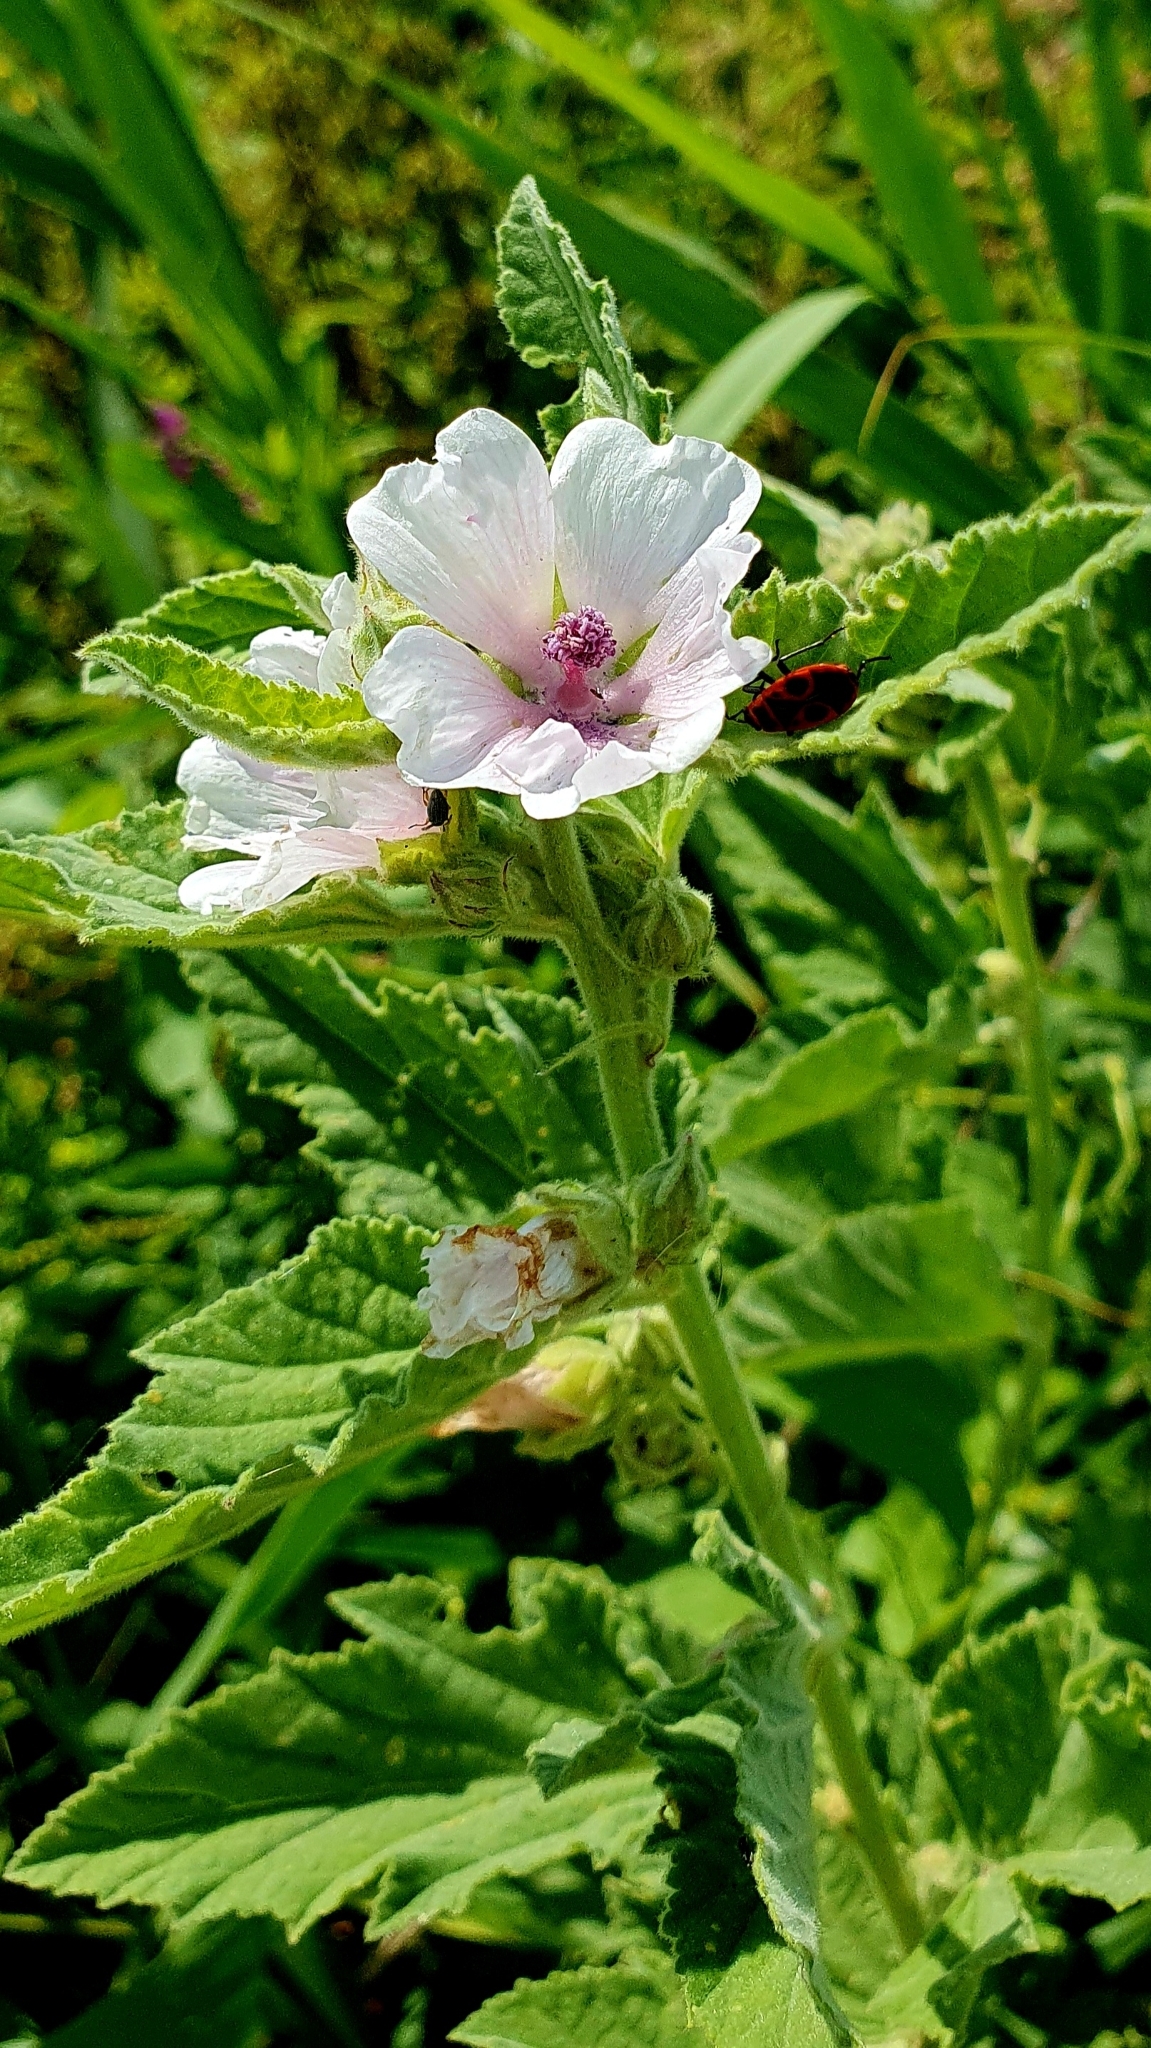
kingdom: Plantae
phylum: Tracheophyta
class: Magnoliopsida
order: Malvales
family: Malvaceae
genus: Althaea
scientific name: Althaea officinalis
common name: Marsh-mallow
